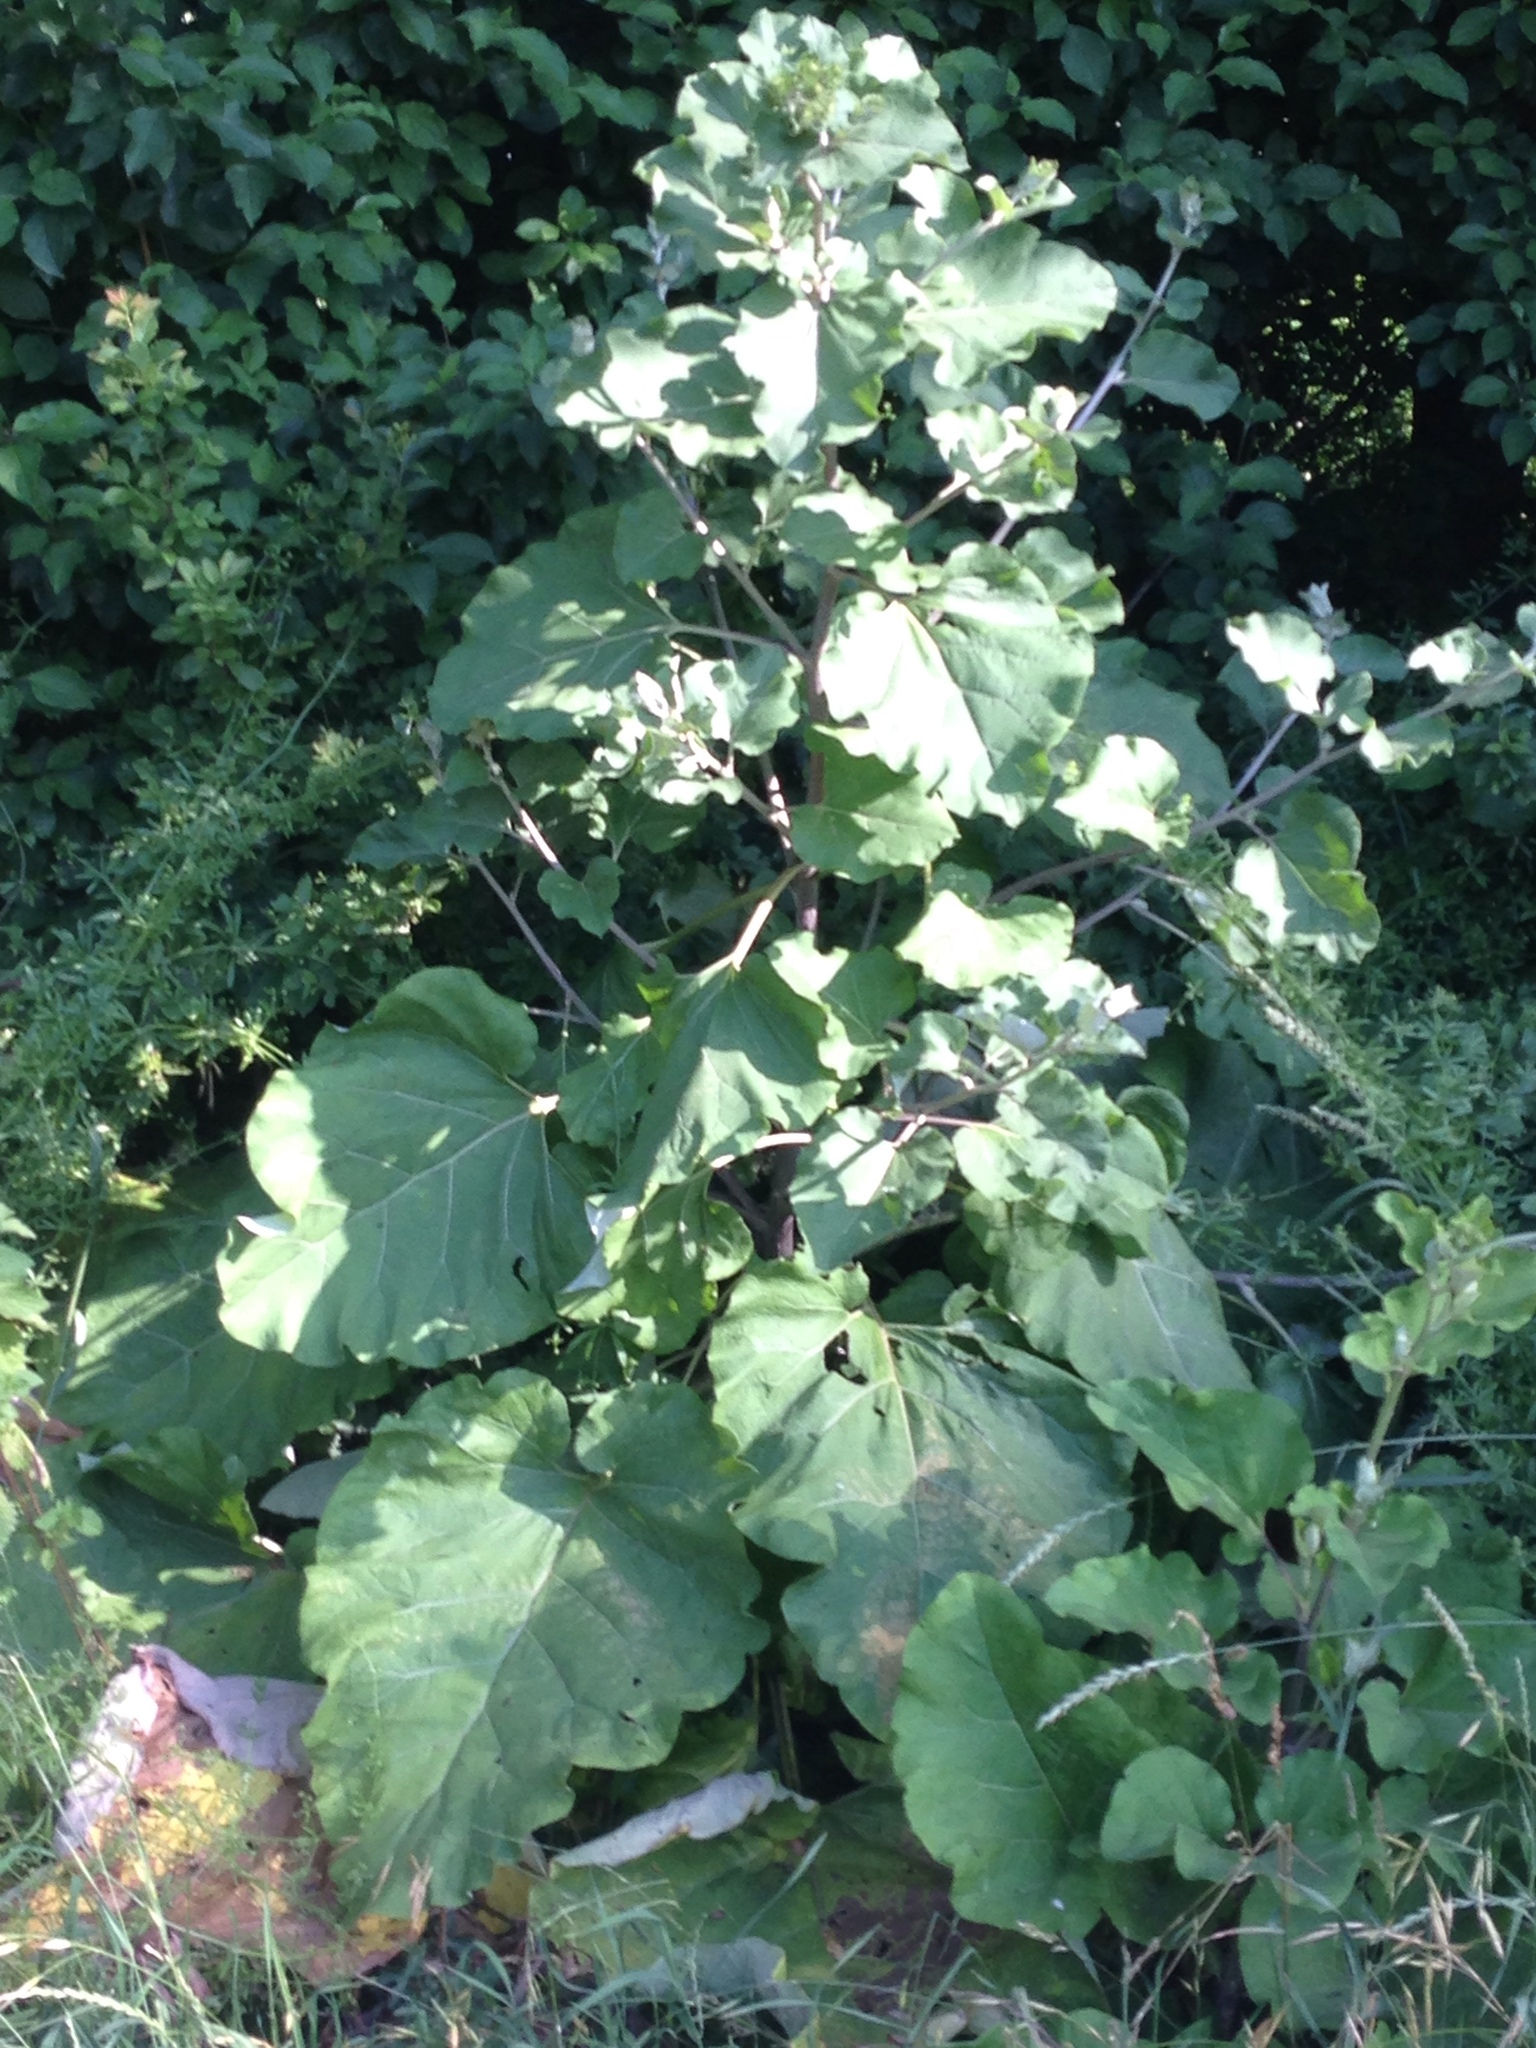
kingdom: Plantae
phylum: Tracheophyta
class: Magnoliopsida
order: Asterales
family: Asteraceae
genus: Arctium
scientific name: Arctium lappa
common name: Greater burdock
